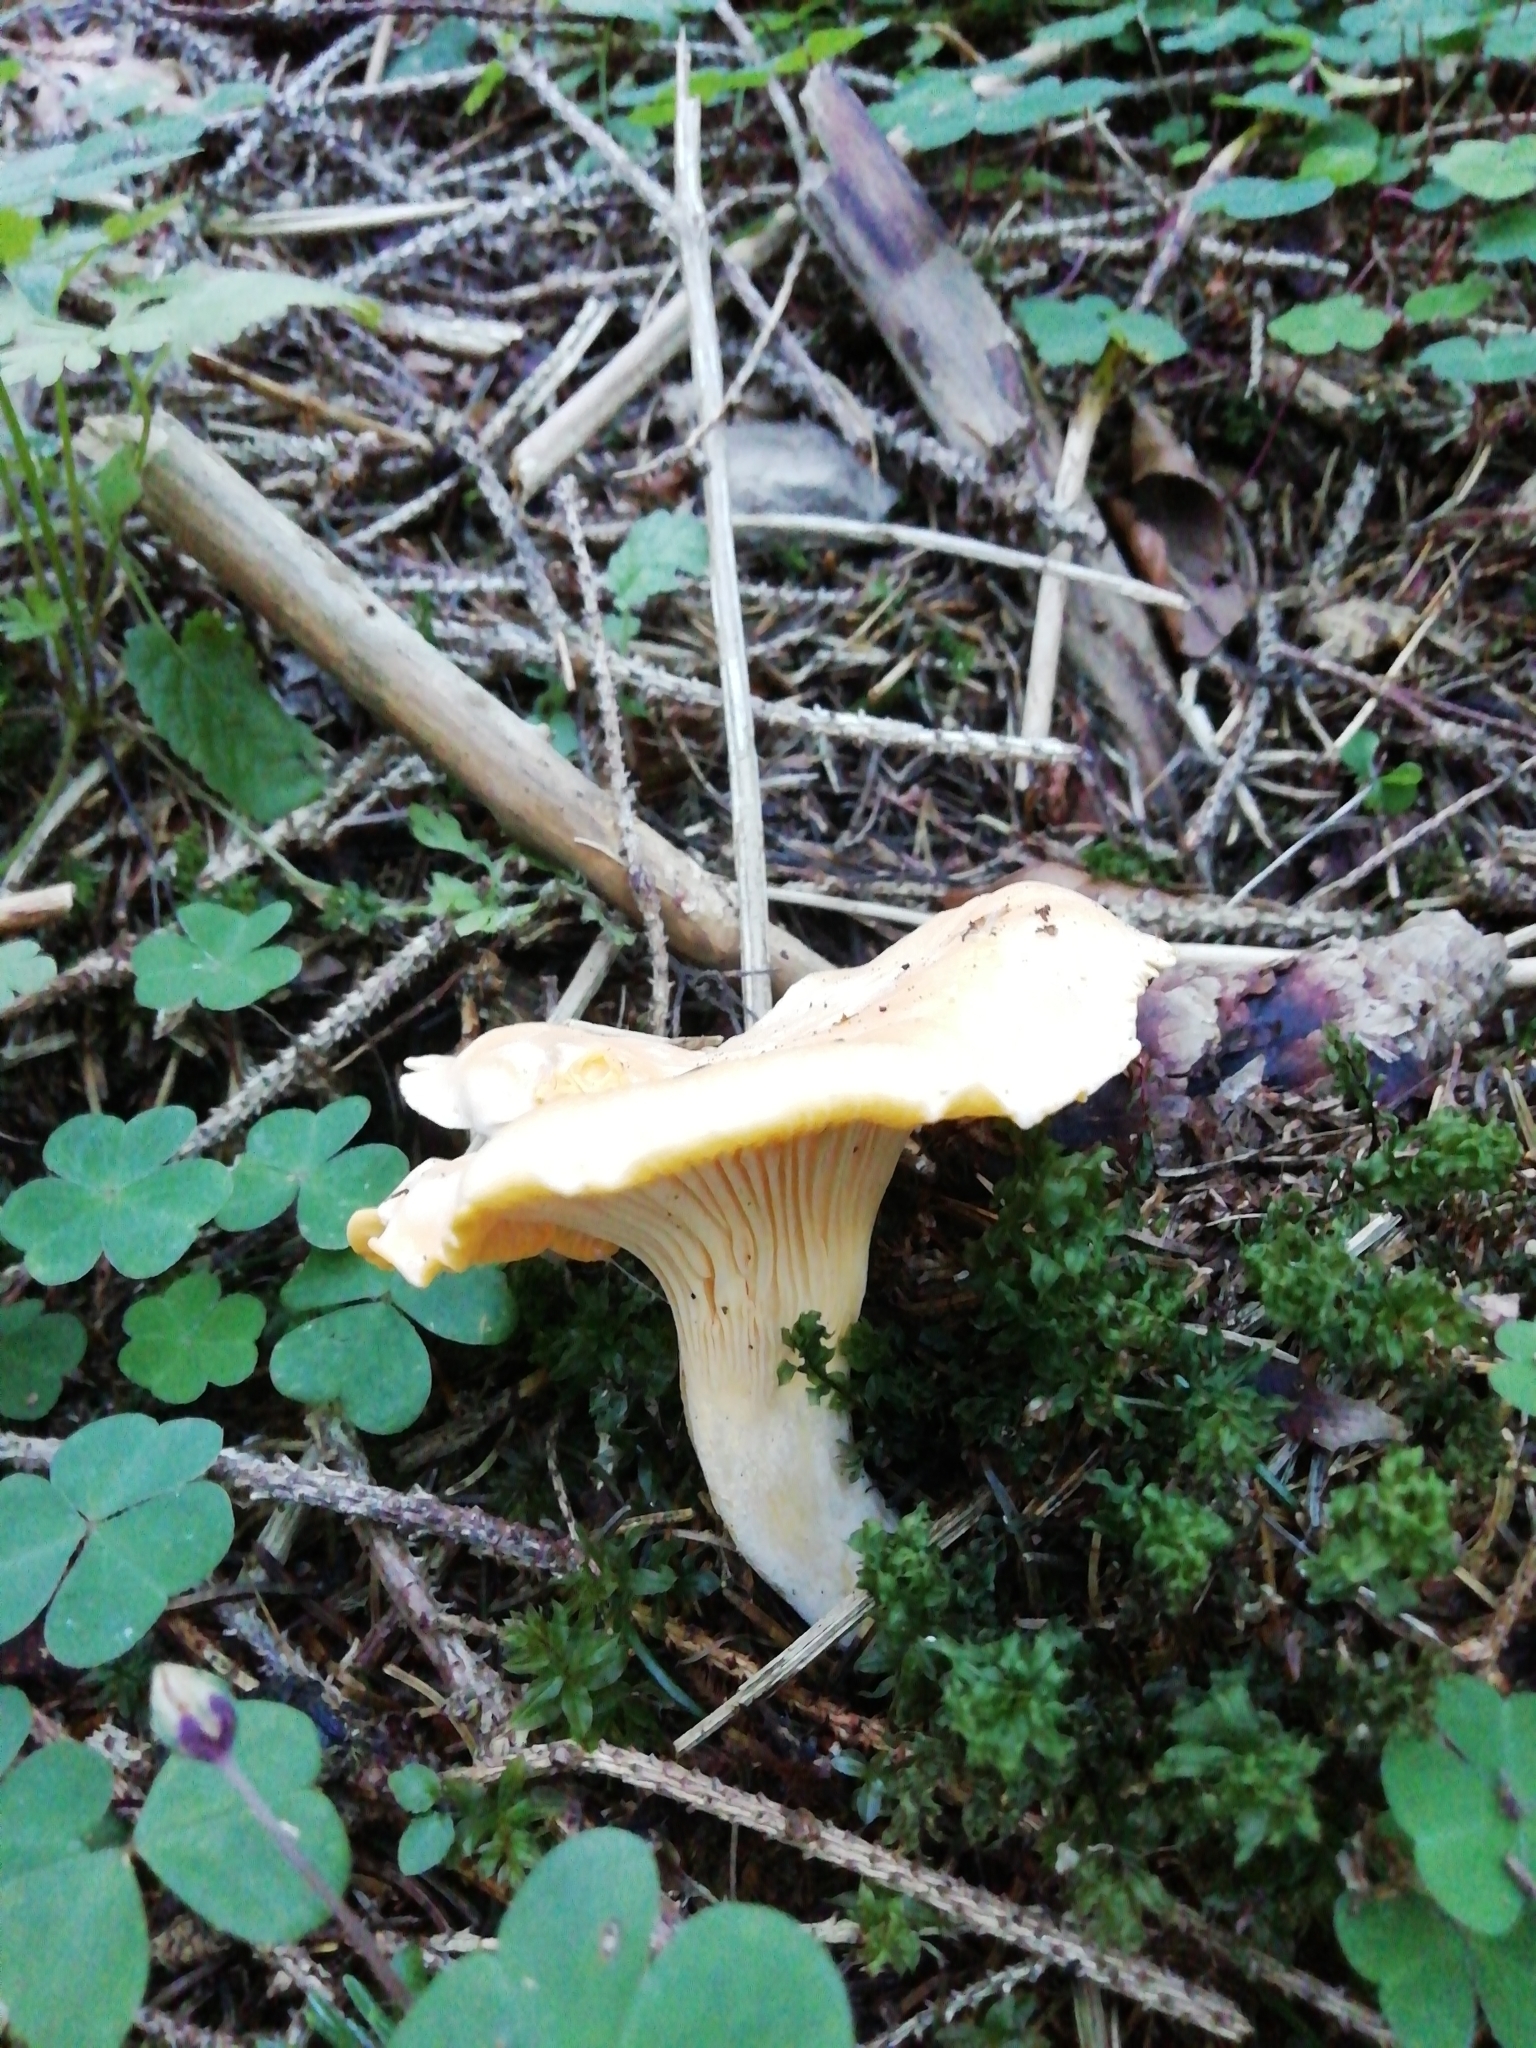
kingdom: Fungi
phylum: Basidiomycota
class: Agaricomycetes
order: Cantharellales
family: Hydnaceae
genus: Cantharellus
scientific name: Cantharellus cibarius
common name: Chanterelle
